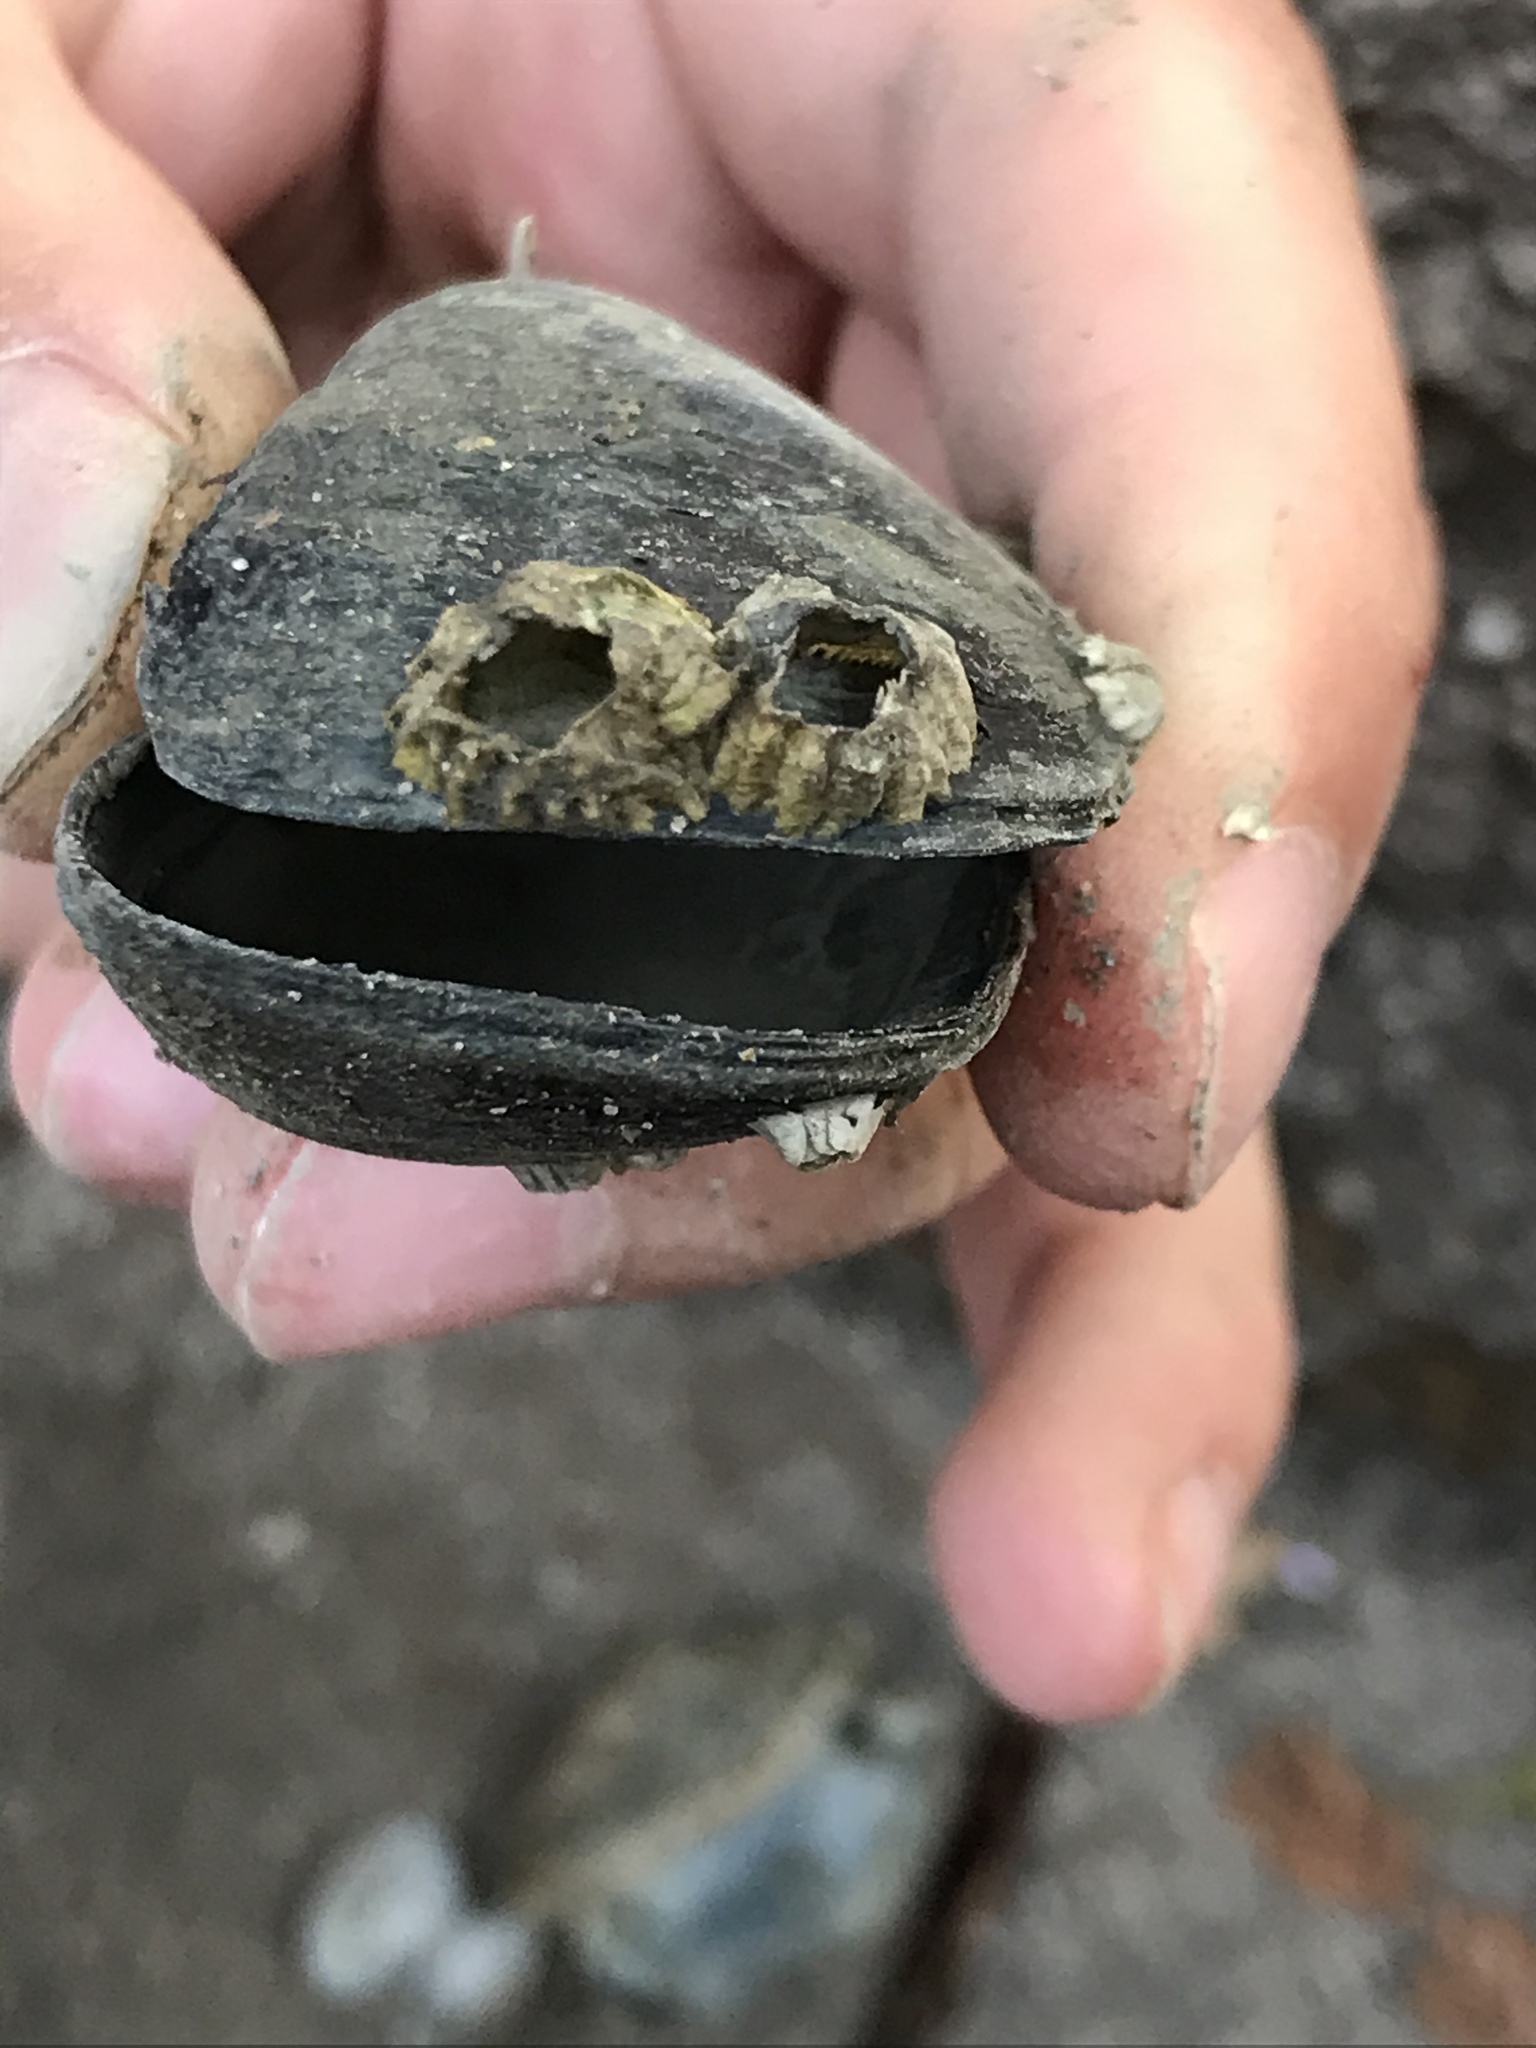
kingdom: Animalia
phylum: Mollusca
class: Bivalvia
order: Mytilida
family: Mytilidae
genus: Mytilus
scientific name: Mytilus
